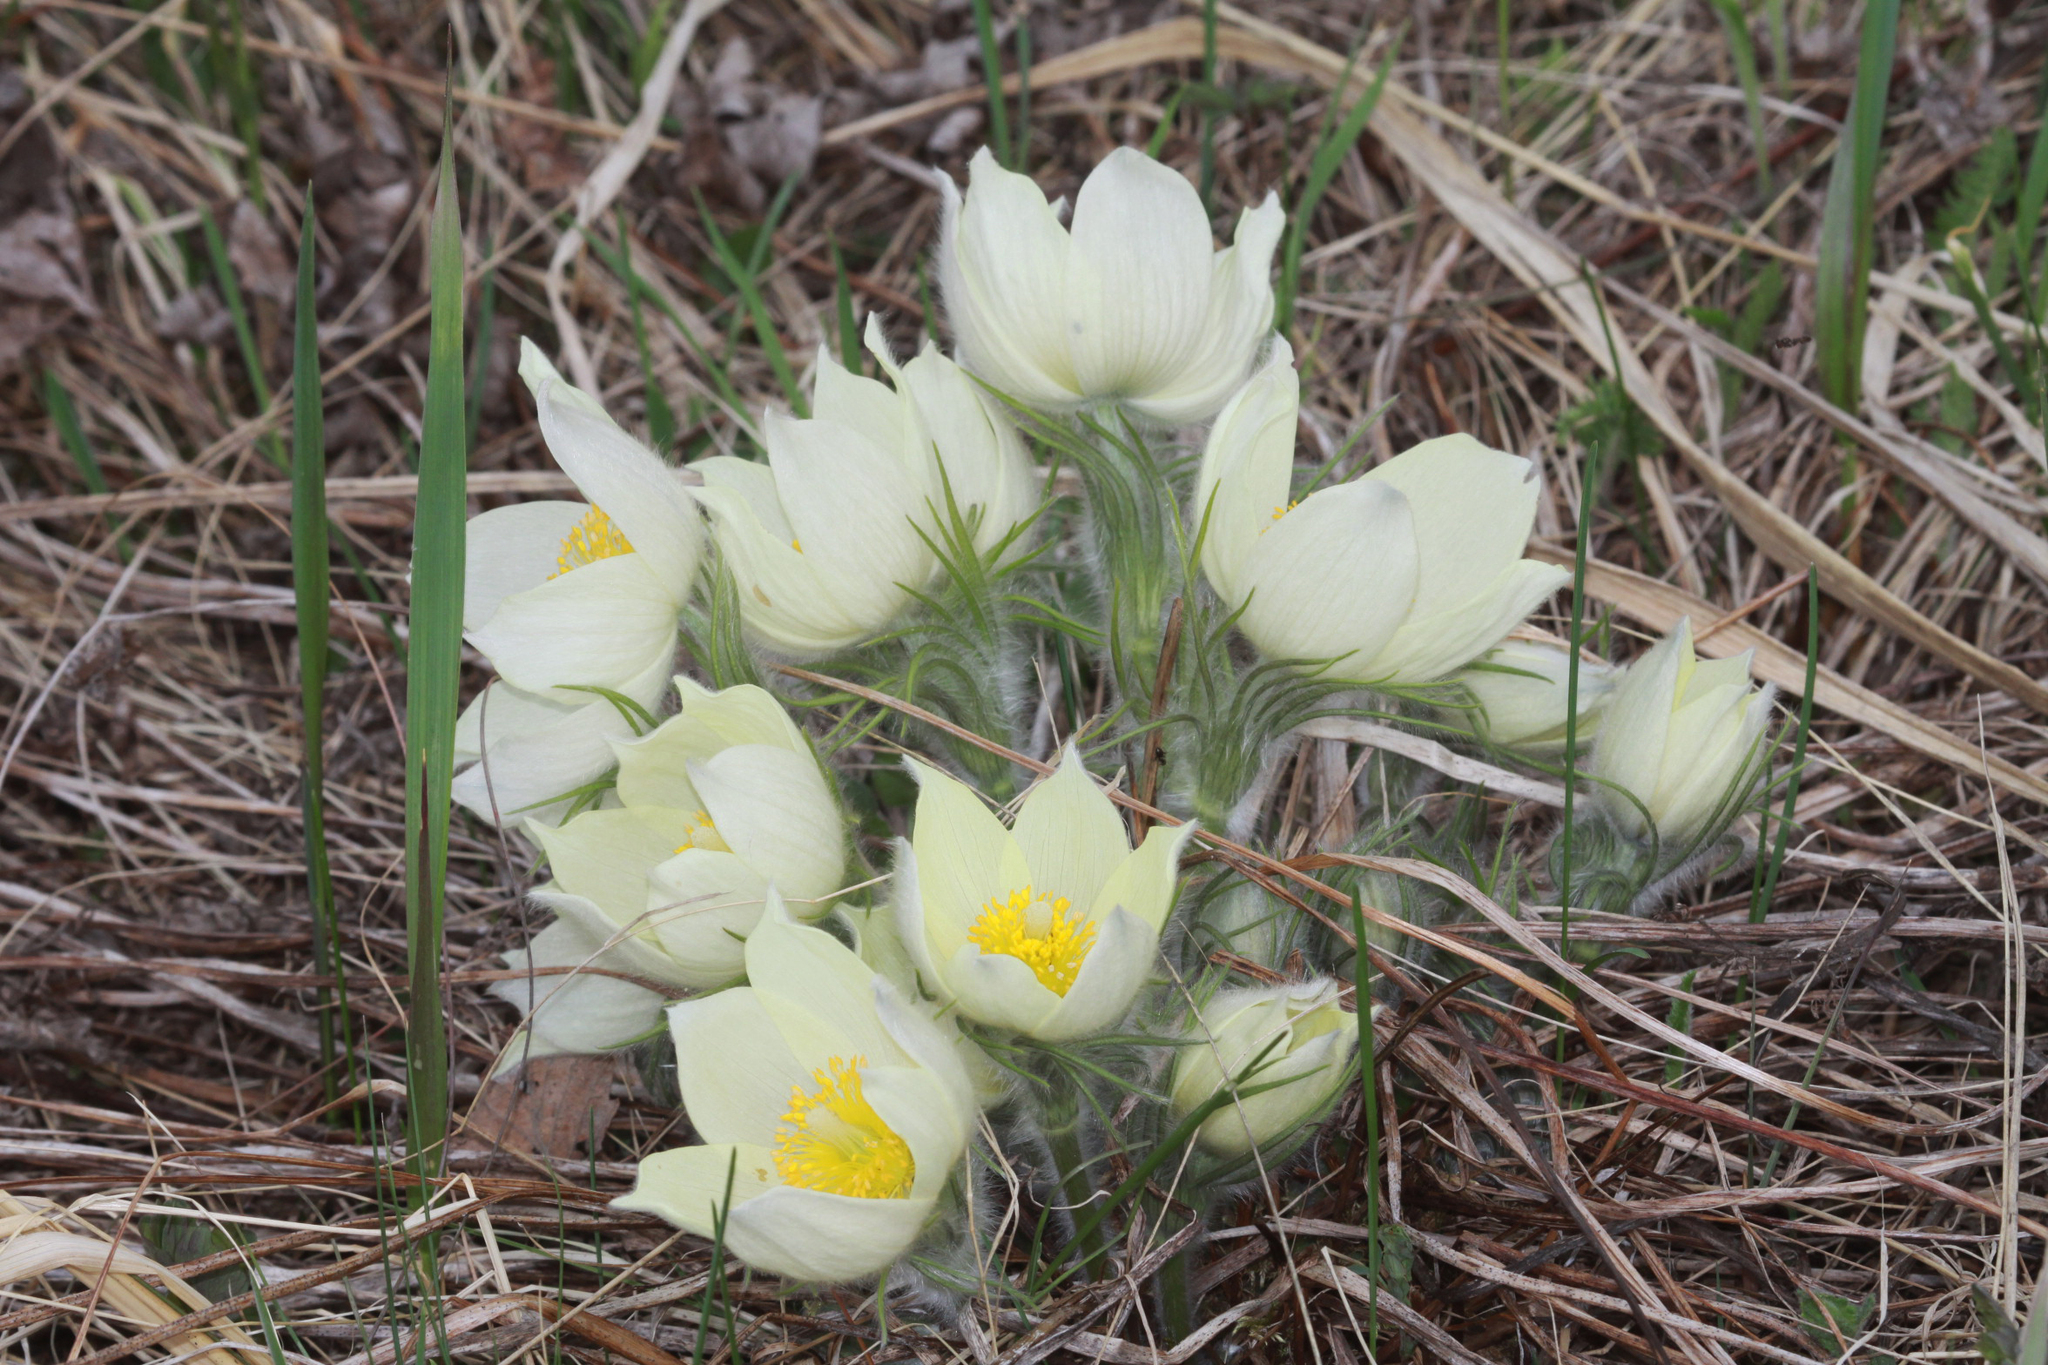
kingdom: Plantae
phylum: Tracheophyta
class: Magnoliopsida
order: Ranunculales
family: Ranunculaceae
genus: Pulsatilla
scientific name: Pulsatilla patens
